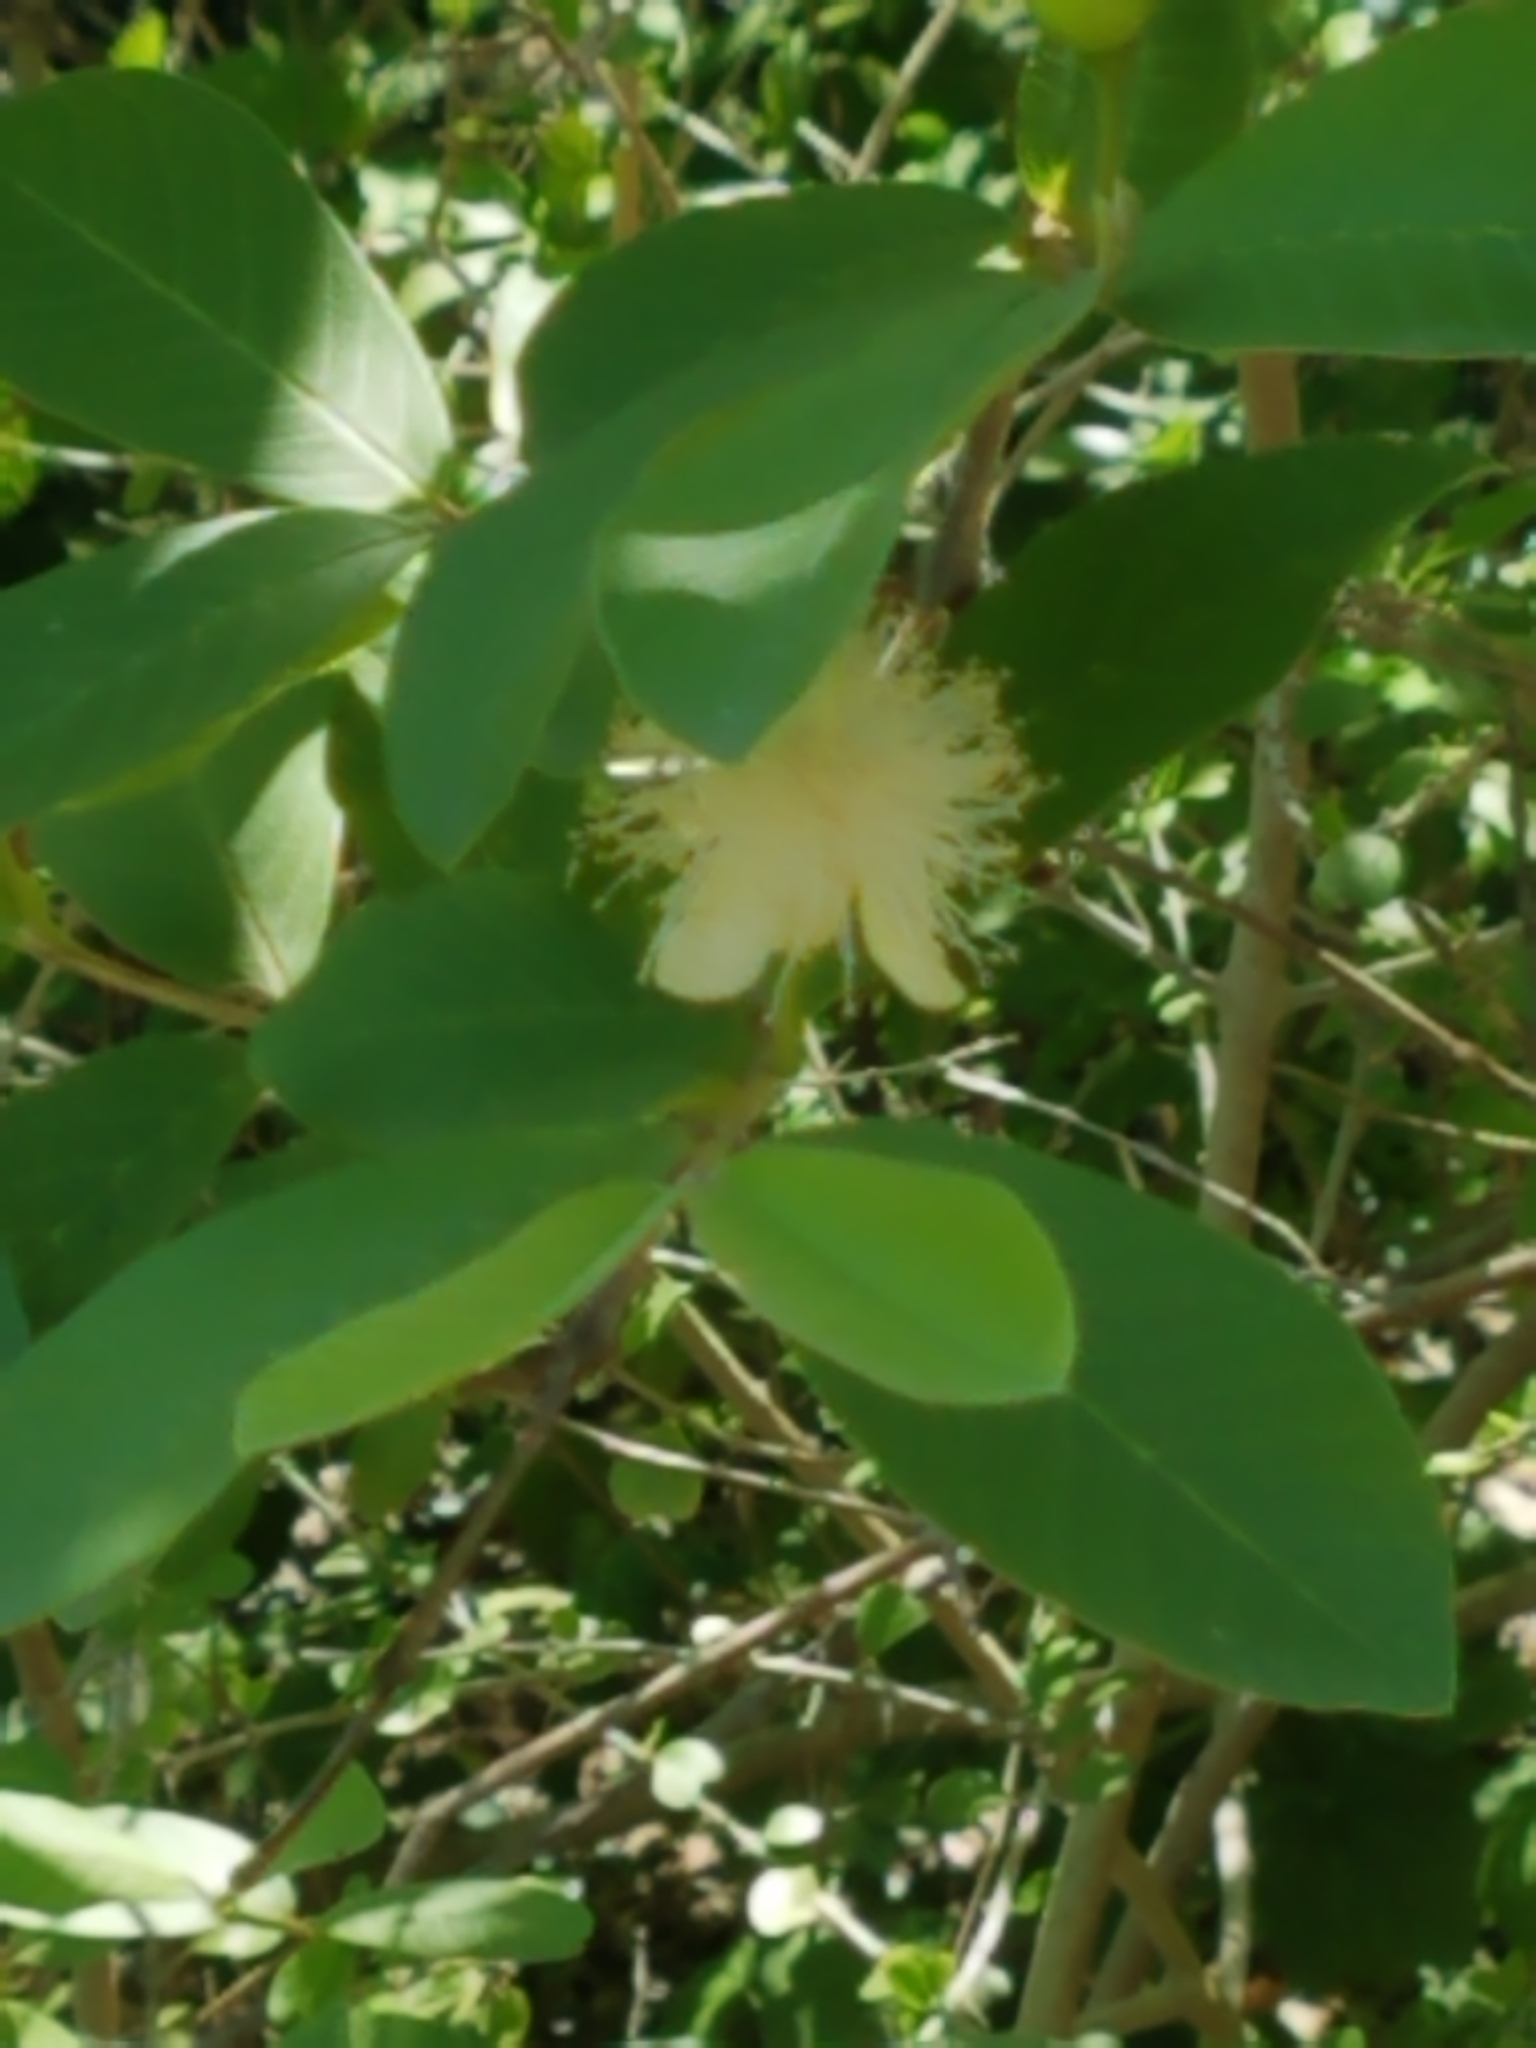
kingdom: Plantae
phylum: Tracheophyta
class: Magnoliopsida
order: Myrtales
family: Myrtaceae
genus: Psidium
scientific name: Psidium guajava
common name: Guava
